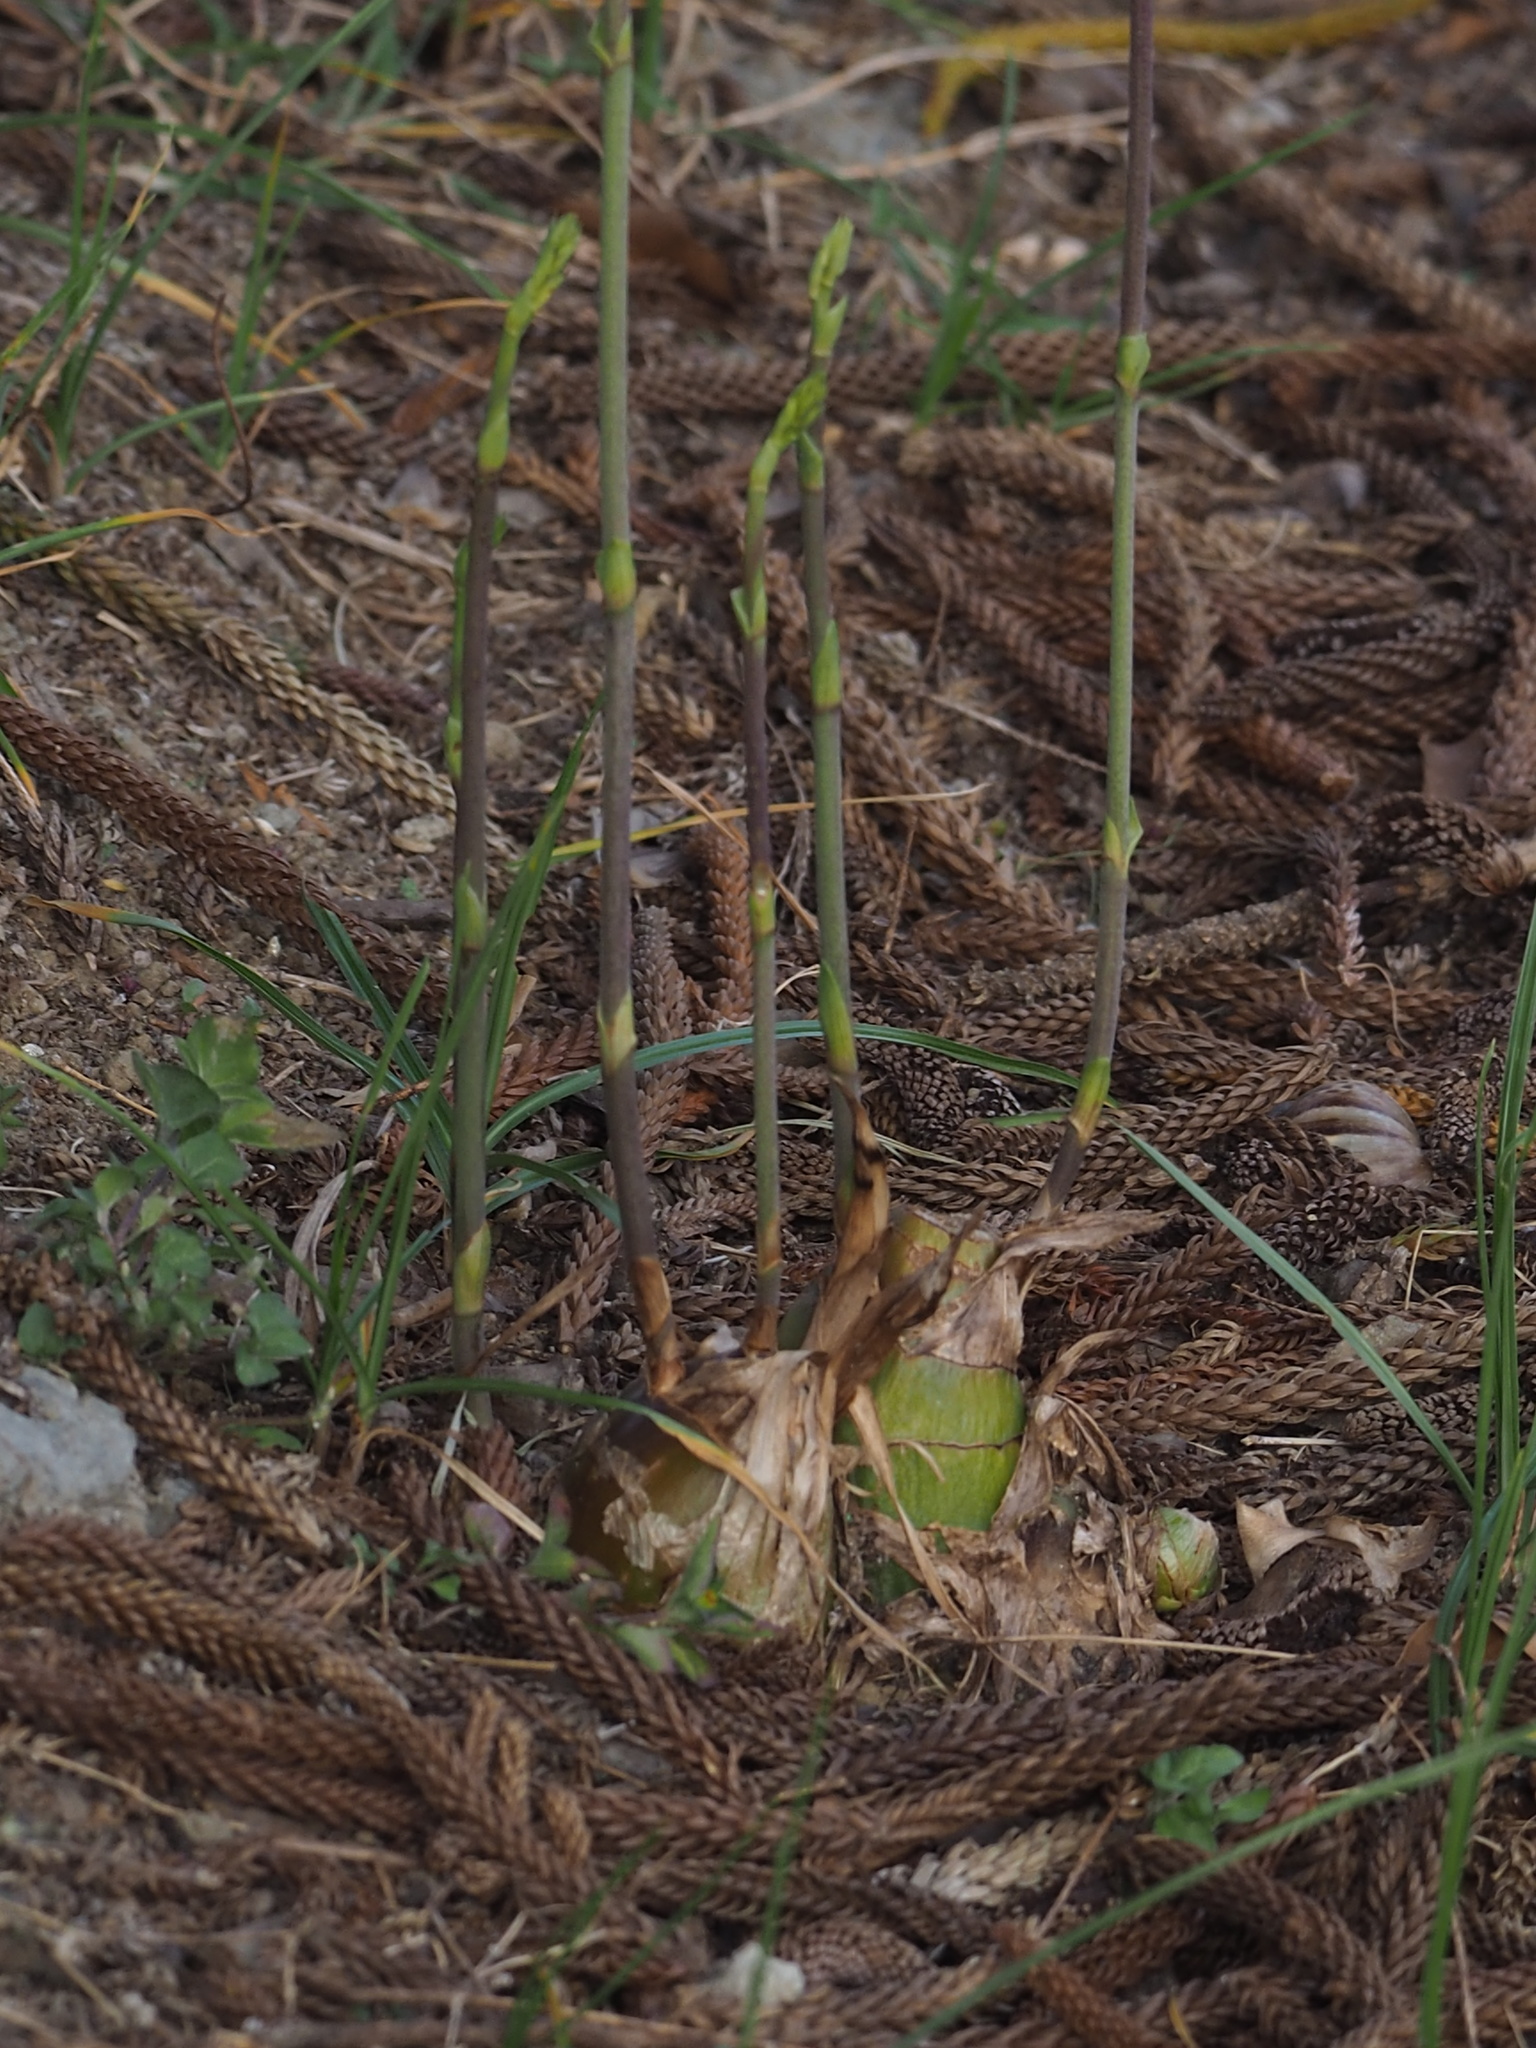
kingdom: Plantae
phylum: Tracheophyta
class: Liliopsida
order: Asparagales
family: Orchidaceae
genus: Eulophia
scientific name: Eulophia graminea
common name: Orchid
